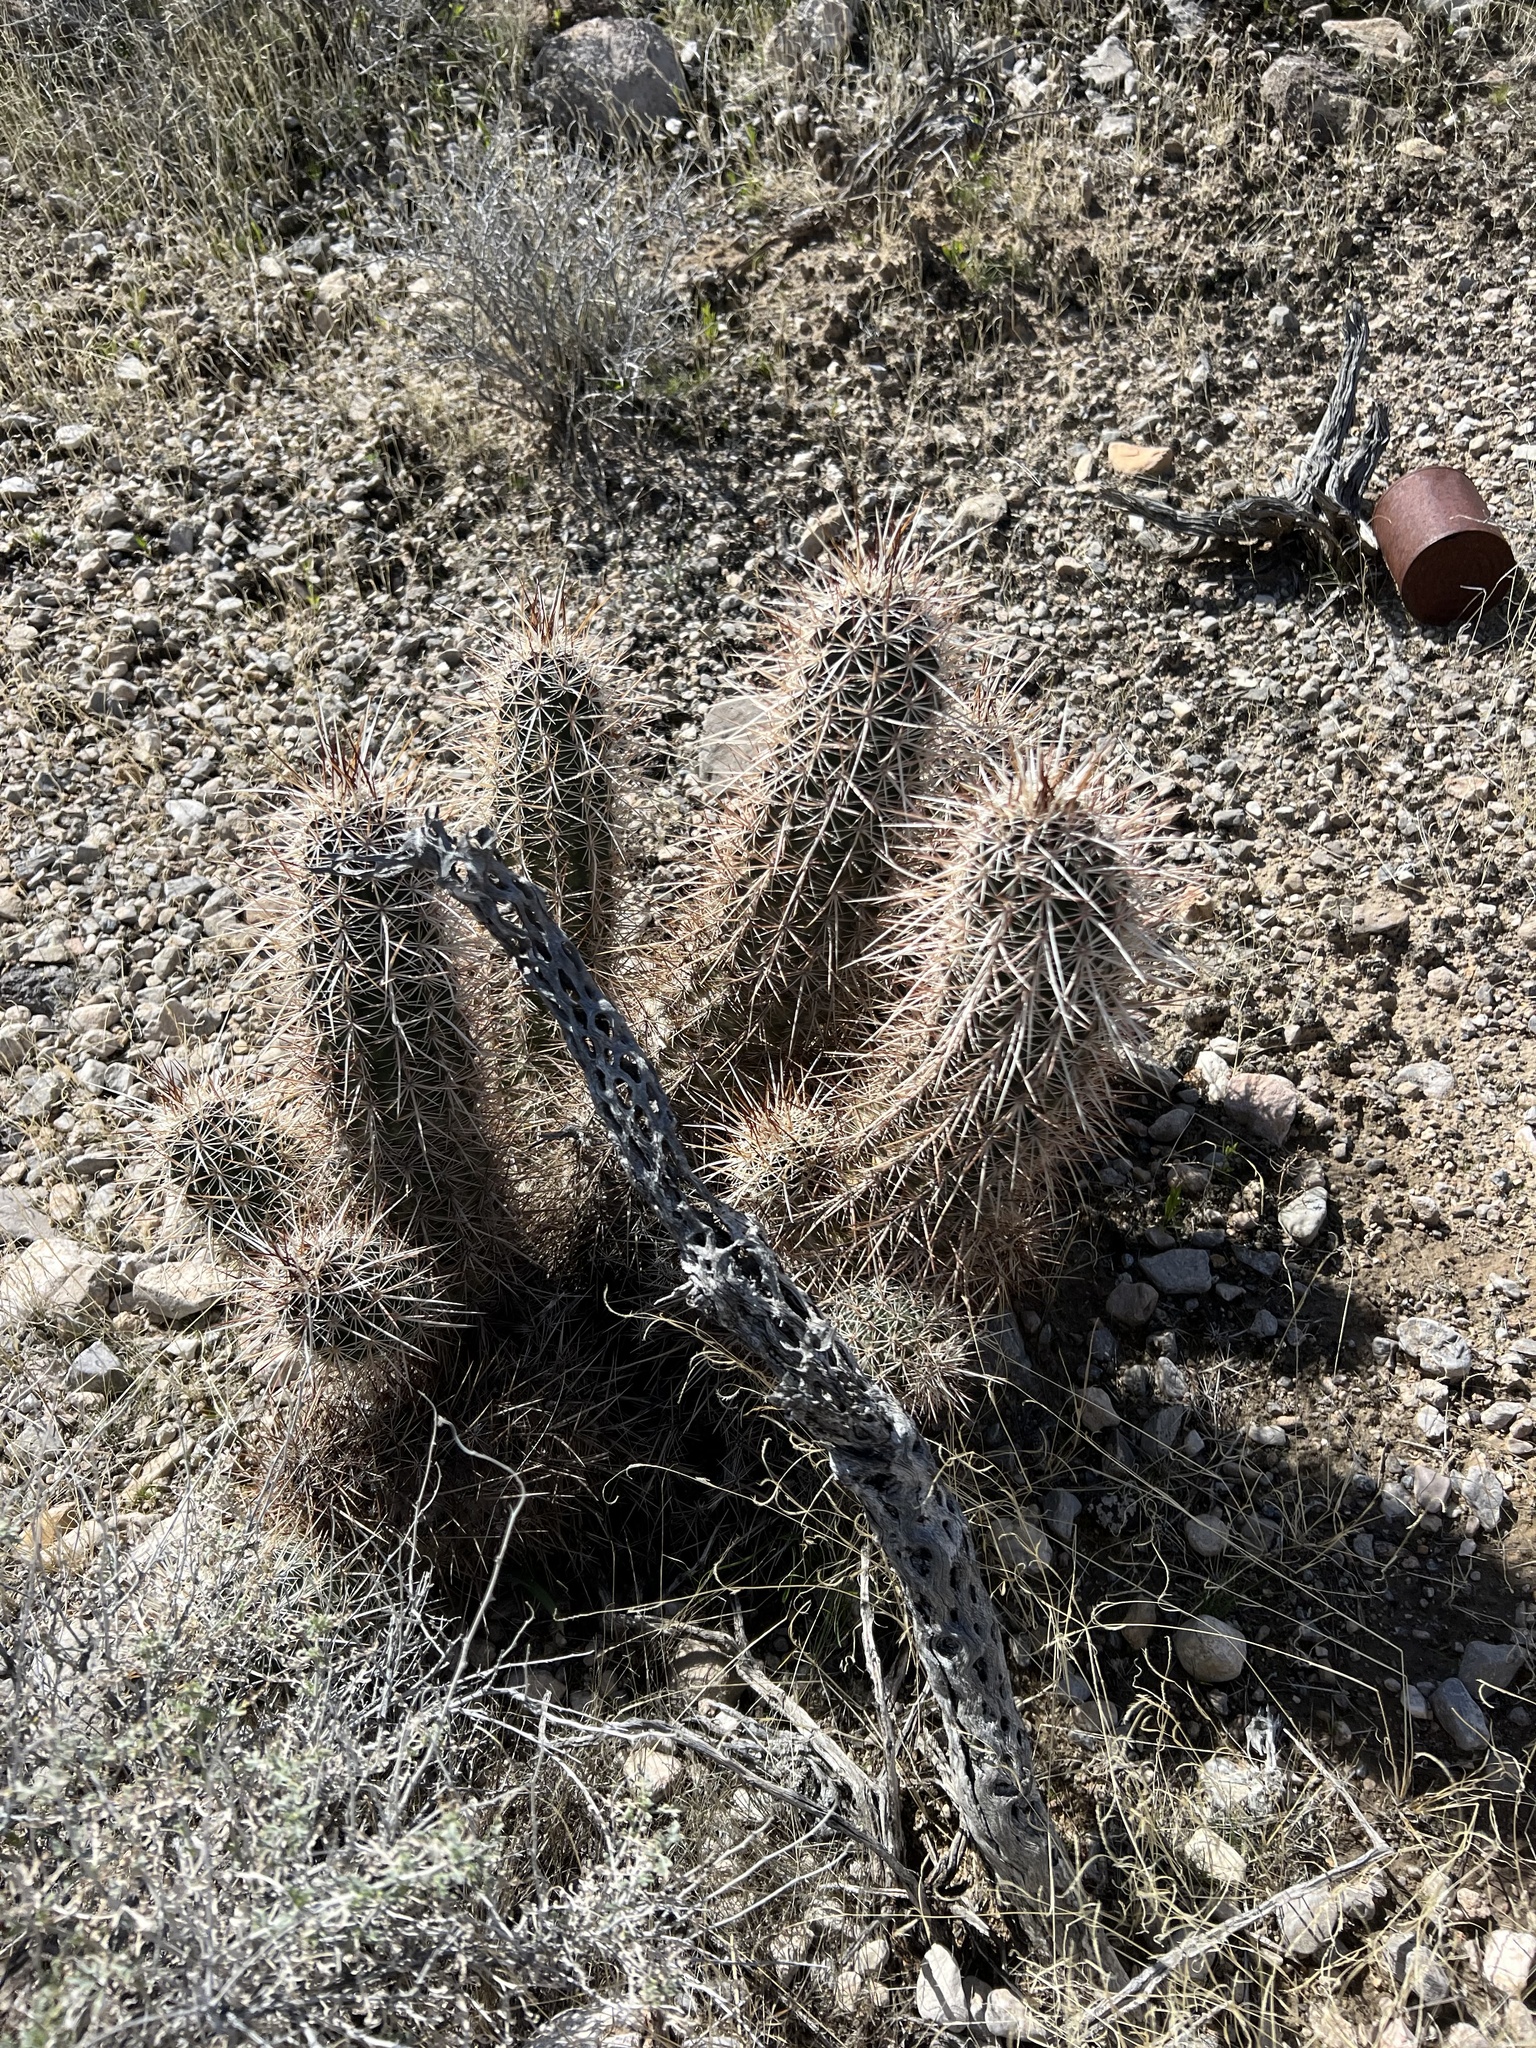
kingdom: Plantae
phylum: Tracheophyta
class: Magnoliopsida
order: Caryophyllales
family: Cactaceae
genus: Echinocereus
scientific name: Echinocereus engelmannii
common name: Engelmann's hedgehog cactus
